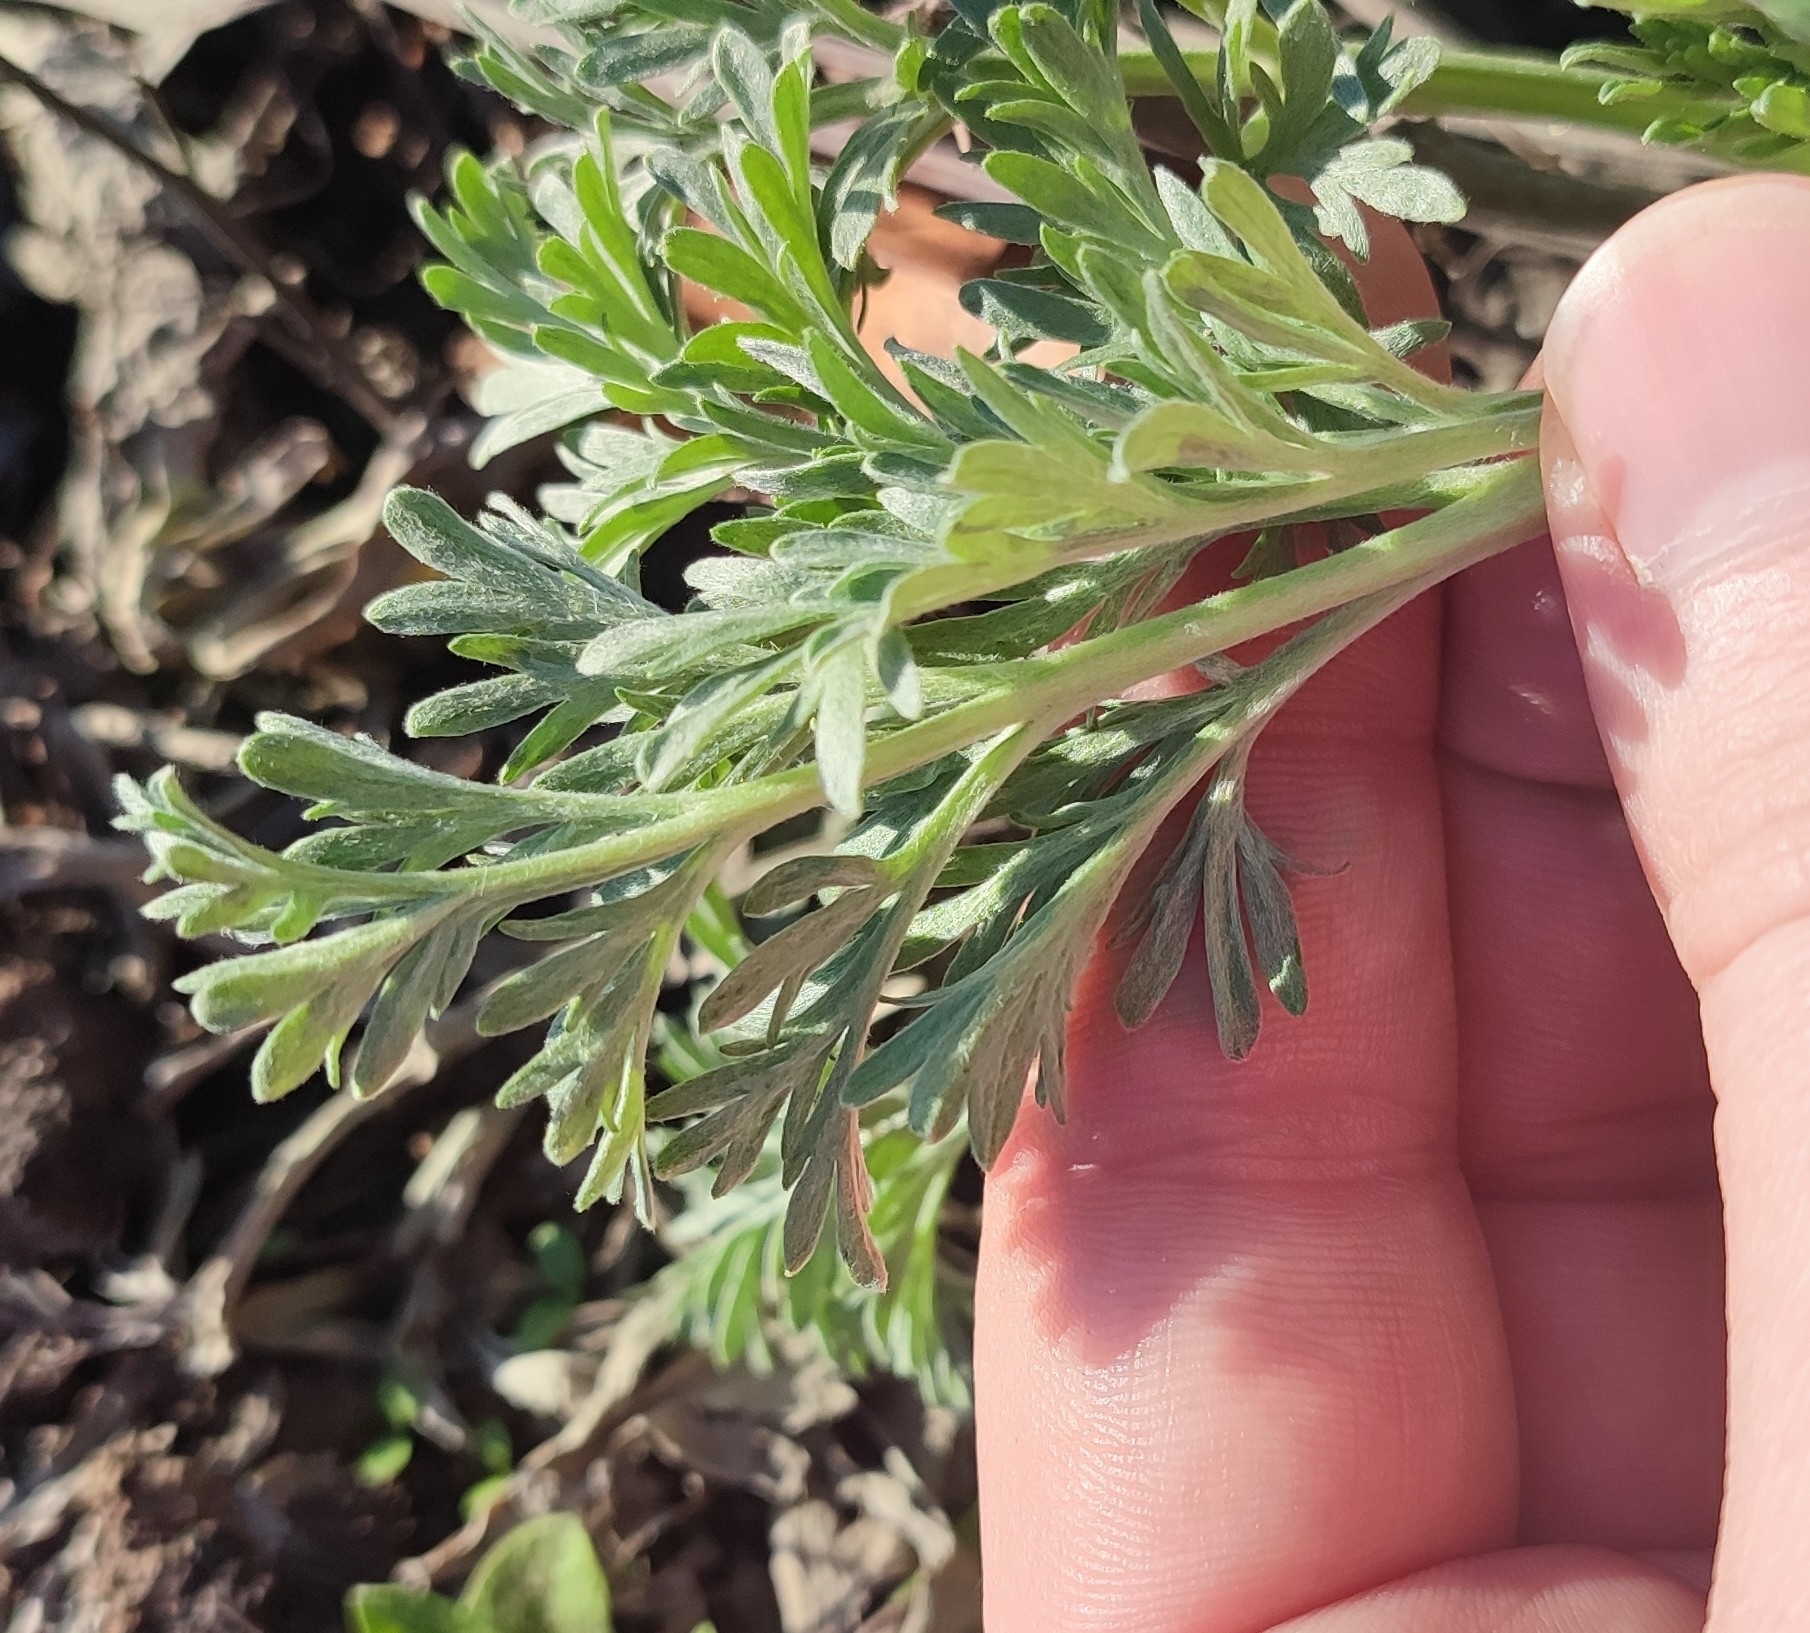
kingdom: Plantae
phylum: Tracheophyta
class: Magnoliopsida
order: Asterales
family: Asteraceae
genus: Artemisia
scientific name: Artemisia sieversiana
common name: Sieversian wormwood
